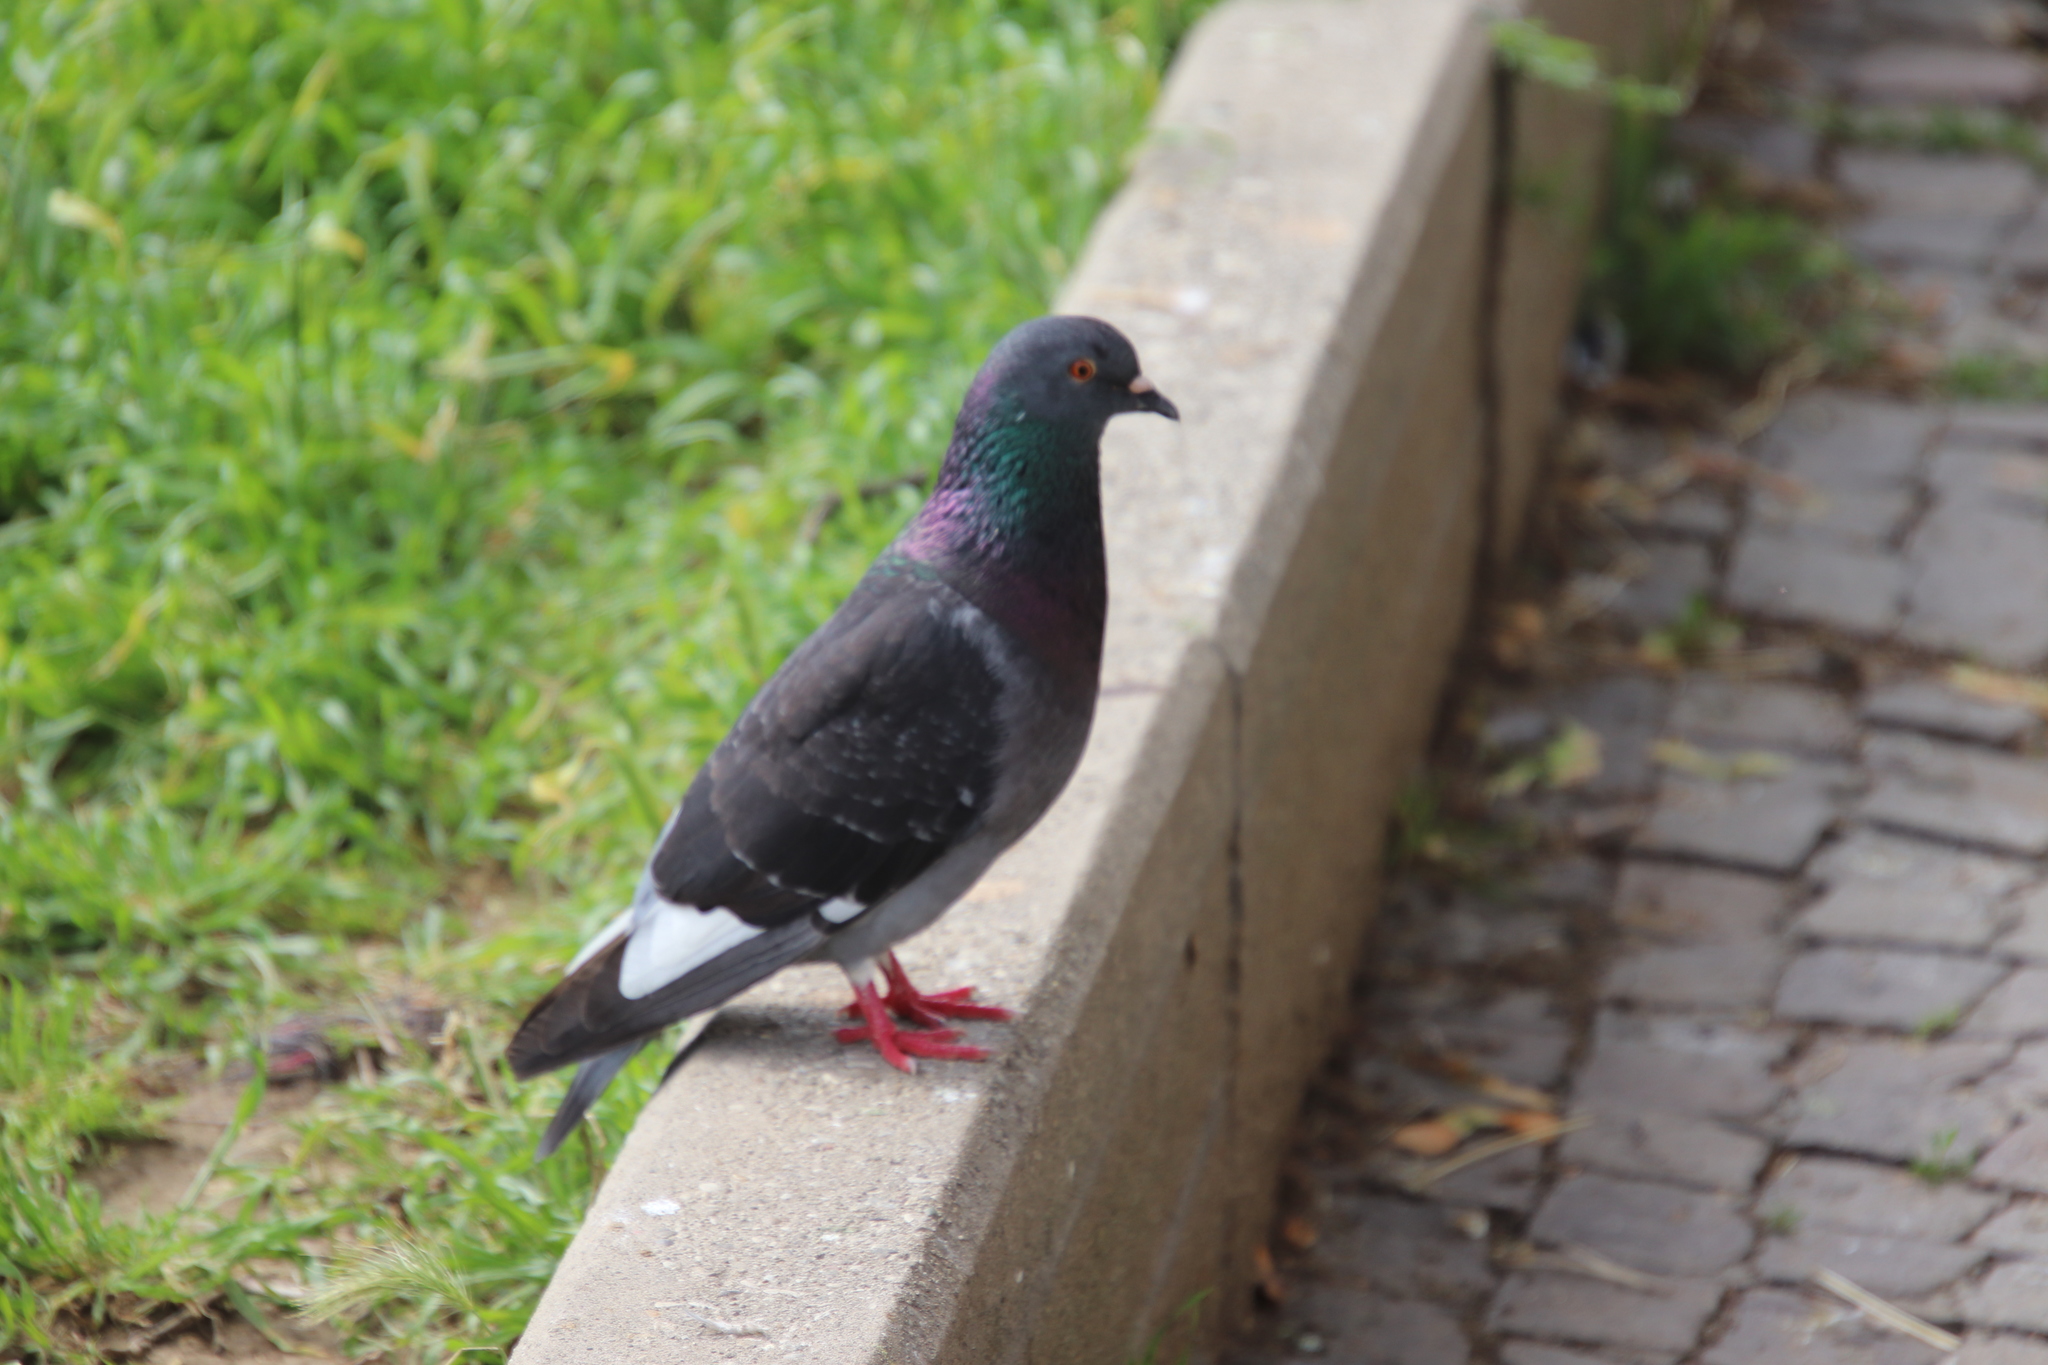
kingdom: Animalia
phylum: Chordata
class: Aves
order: Columbiformes
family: Columbidae
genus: Columba
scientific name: Columba livia
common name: Rock pigeon
